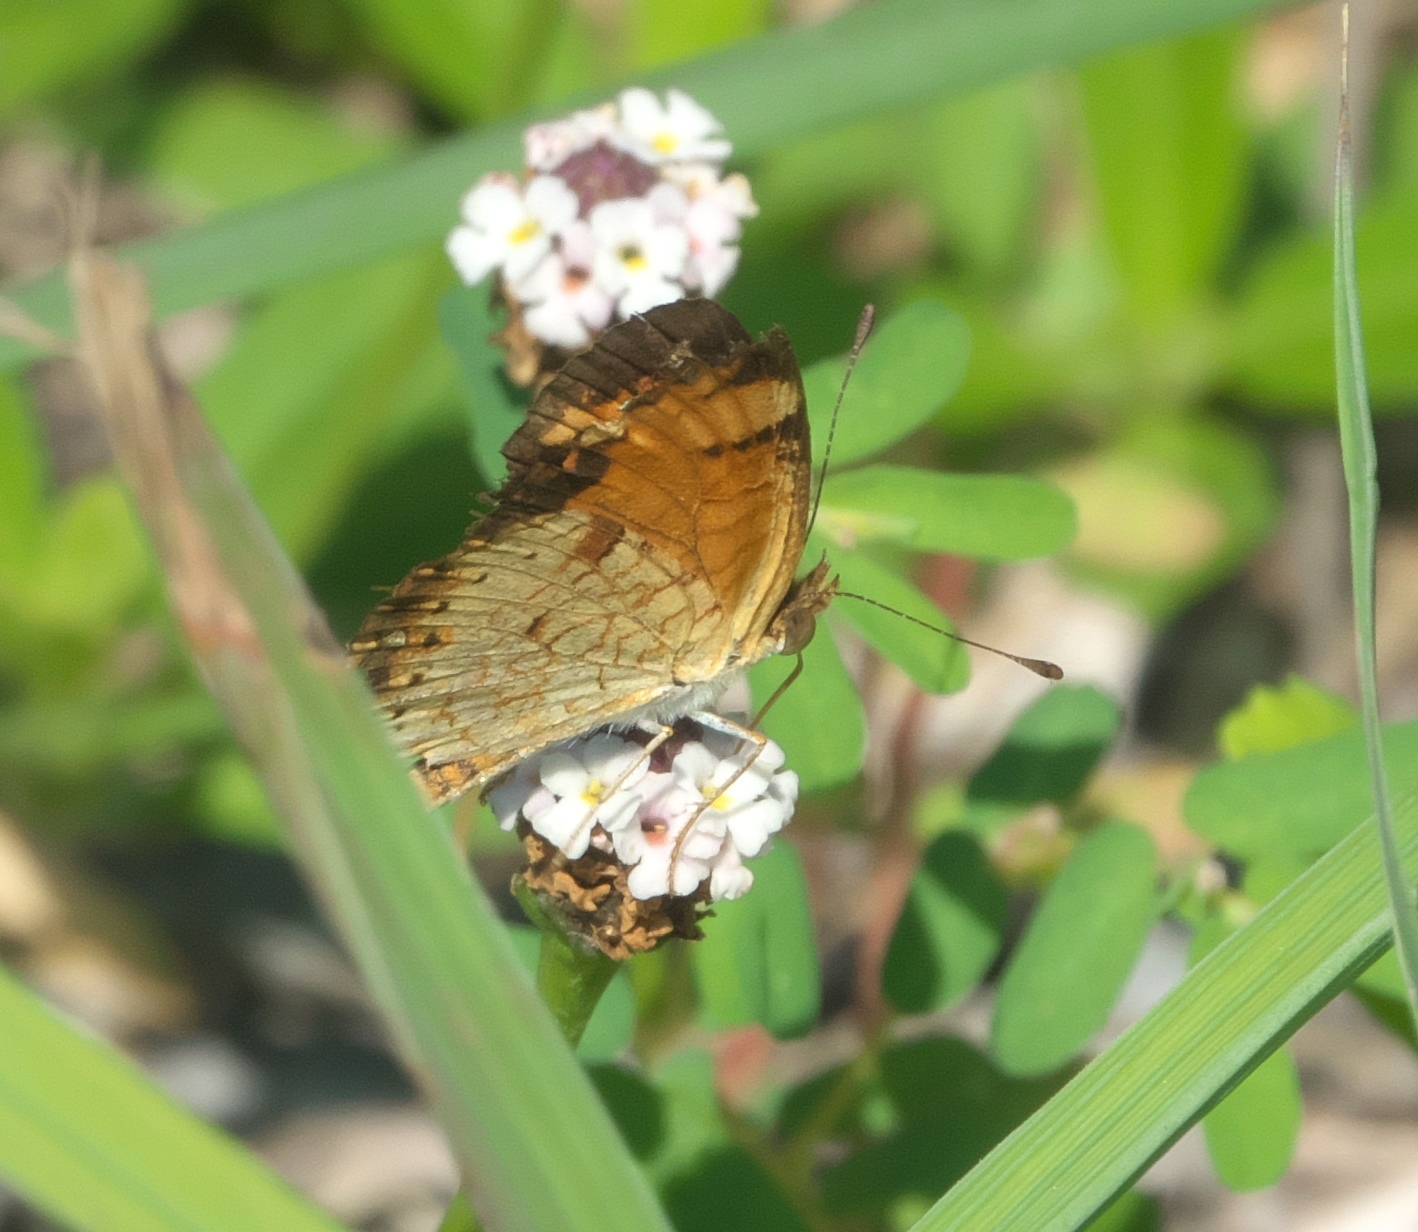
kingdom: Animalia
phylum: Arthropoda
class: Insecta
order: Lepidoptera
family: Nymphalidae
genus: Phyciodes
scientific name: Phyciodes tharos
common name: Pearl crescent
